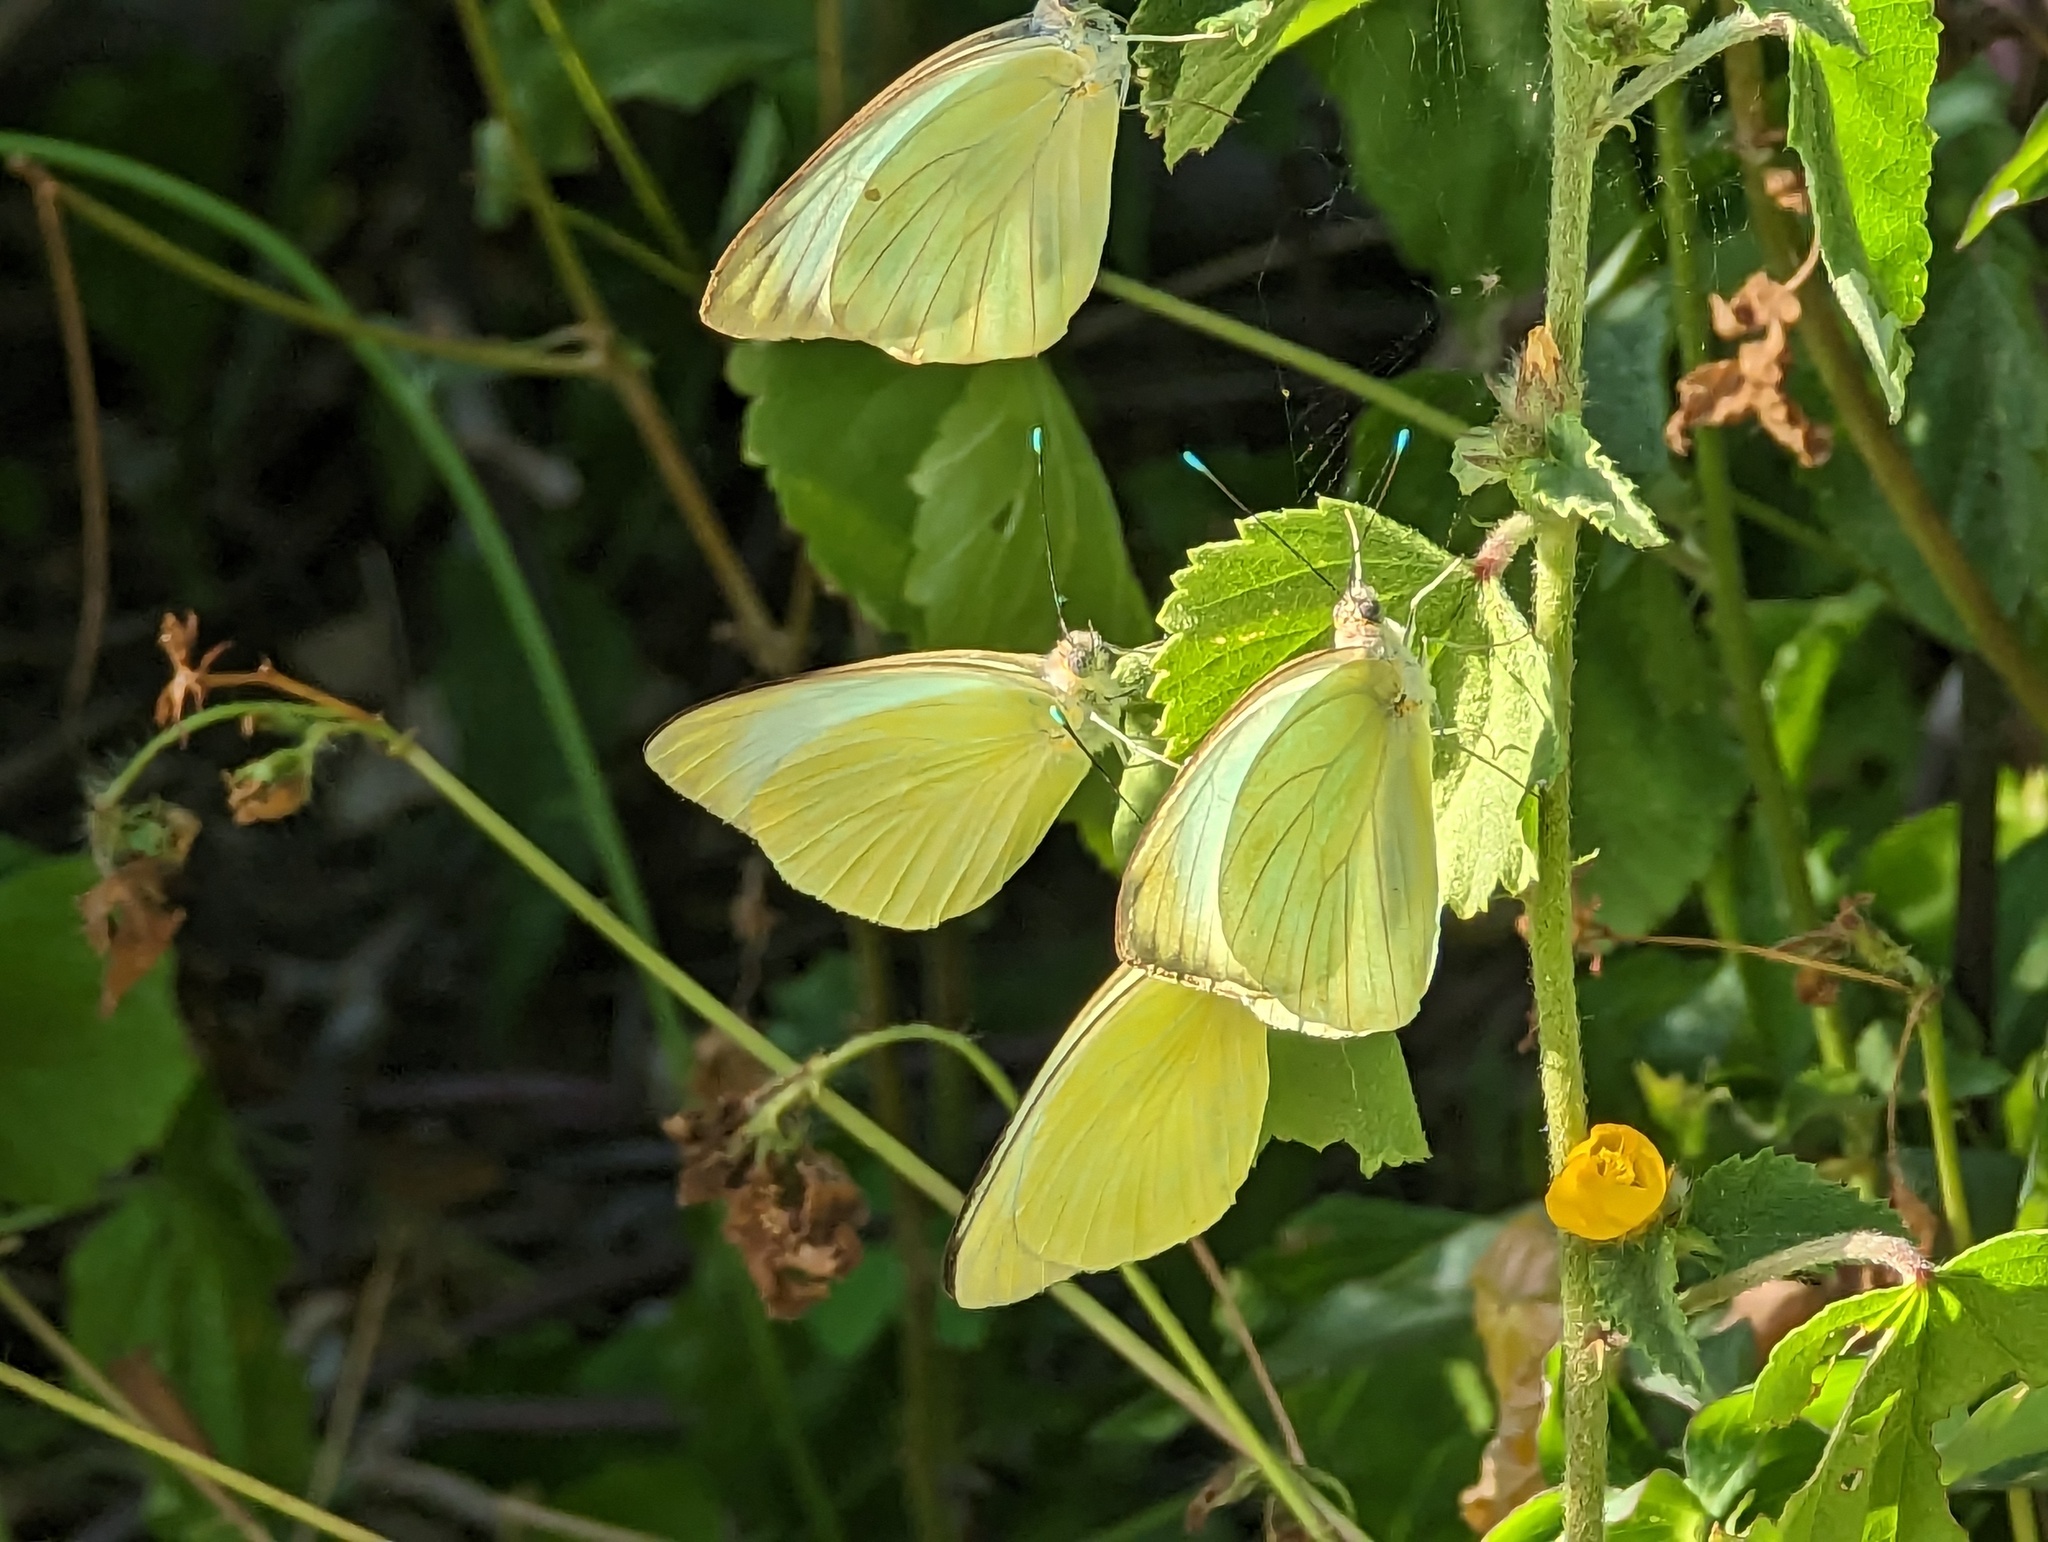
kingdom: Animalia
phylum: Arthropoda
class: Insecta
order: Lepidoptera
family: Pieridae
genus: Ascia
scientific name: Ascia monuste
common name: Great southern white
